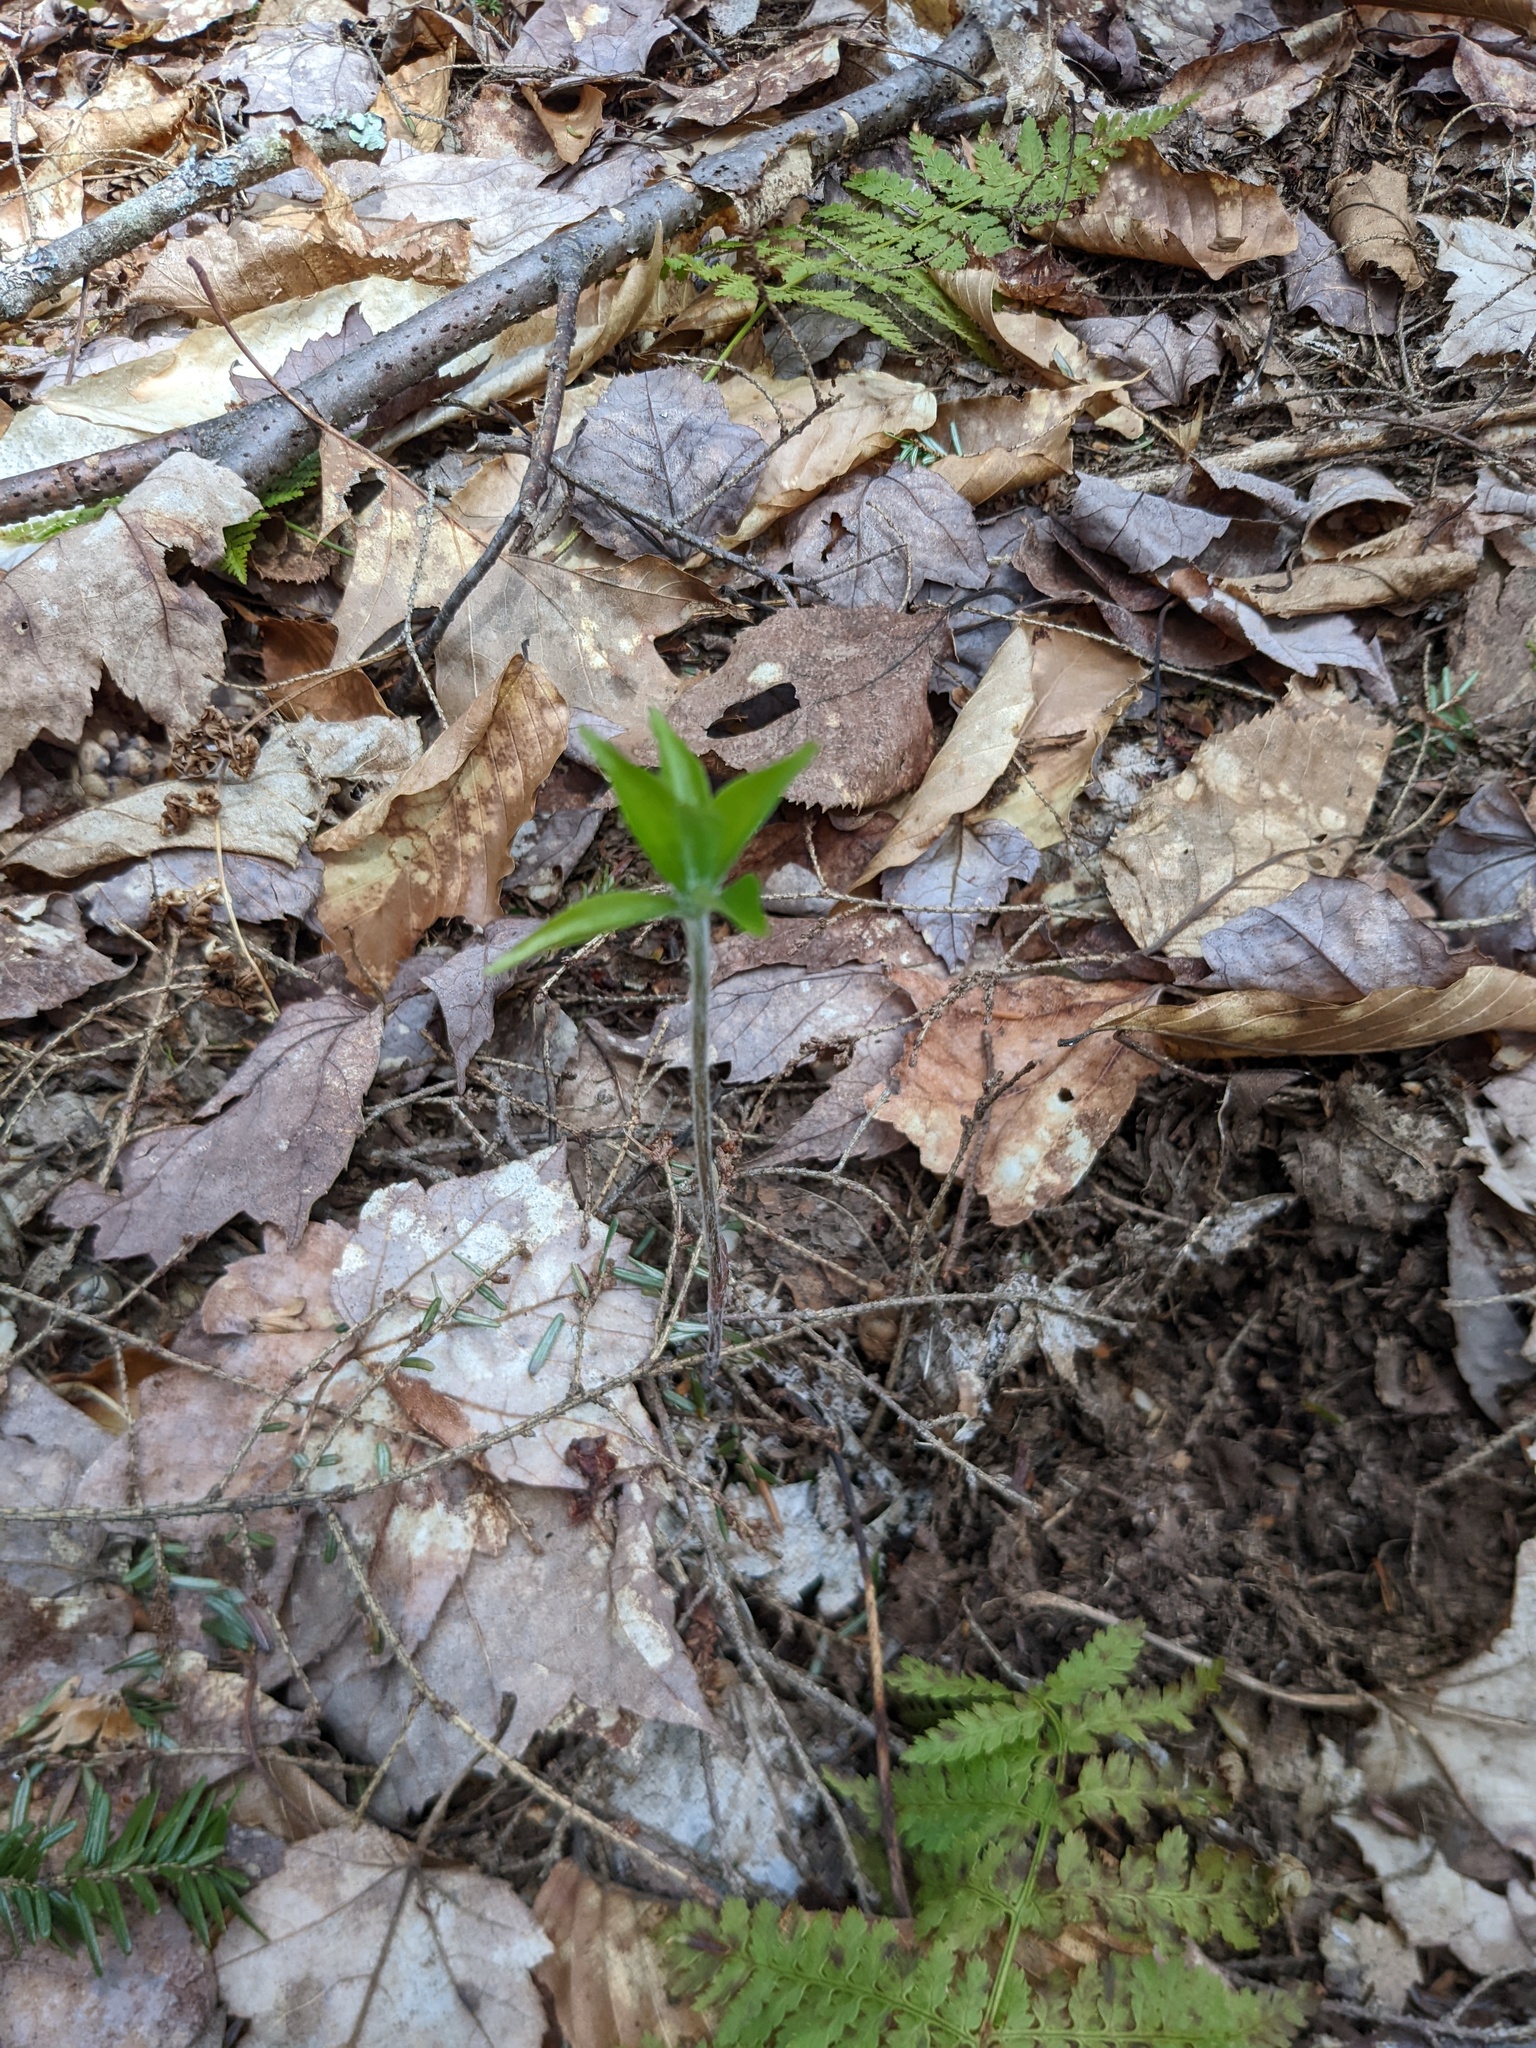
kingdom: Plantae
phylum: Tracheophyta
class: Liliopsida
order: Liliales
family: Liliaceae
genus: Medeola
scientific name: Medeola virginiana
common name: Indian cucumber-root
